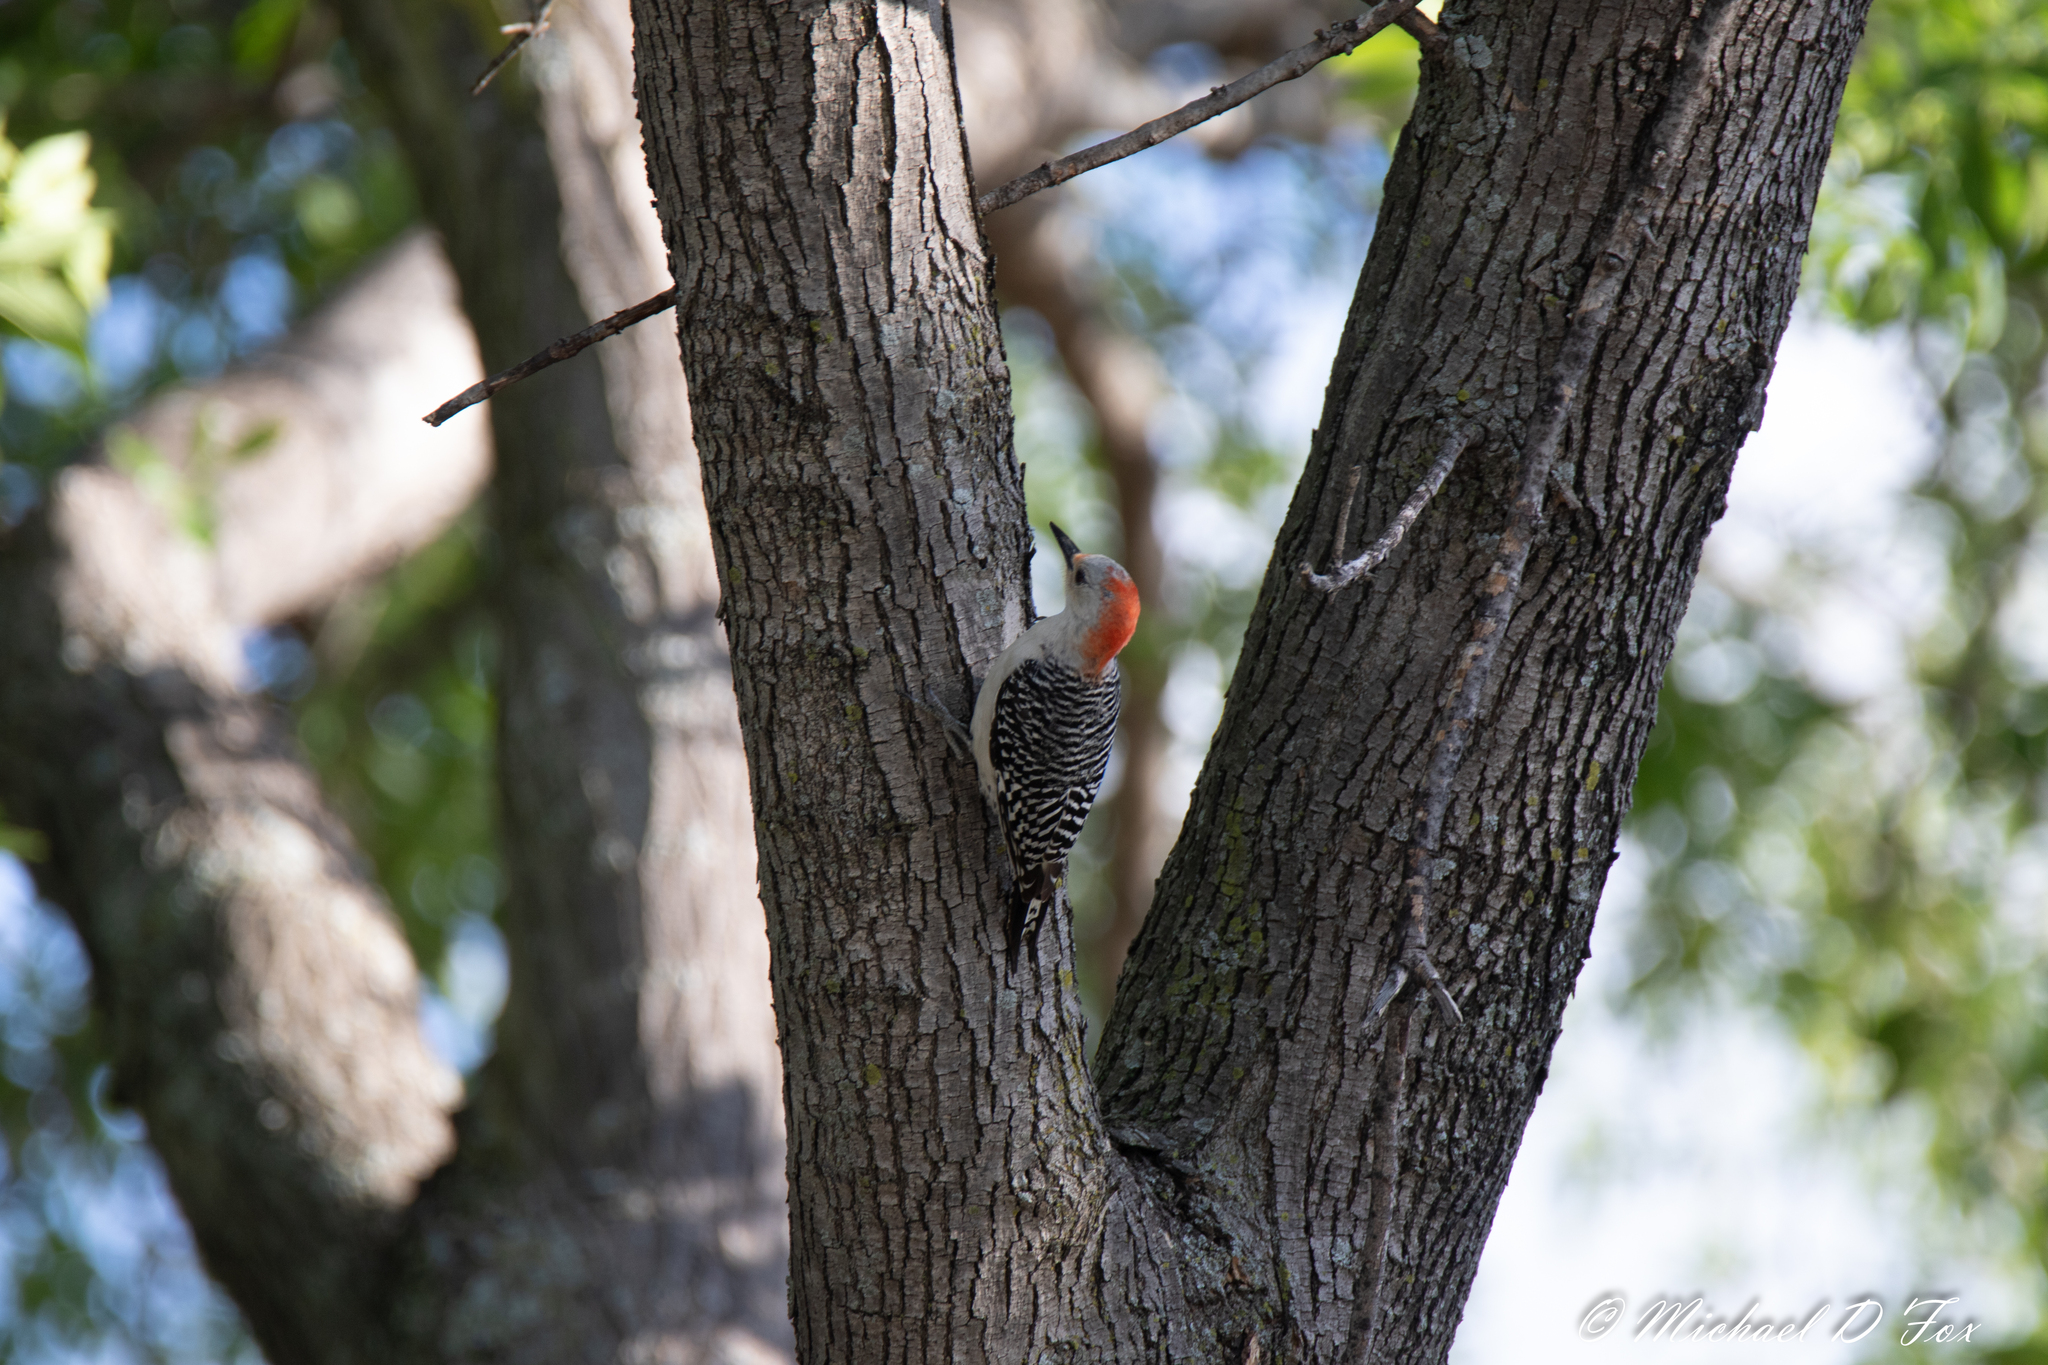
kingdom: Animalia
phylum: Chordata
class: Aves
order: Piciformes
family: Picidae
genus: Melanerpes
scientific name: Melanerpes carolinus
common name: Red-bellied woodpecker
